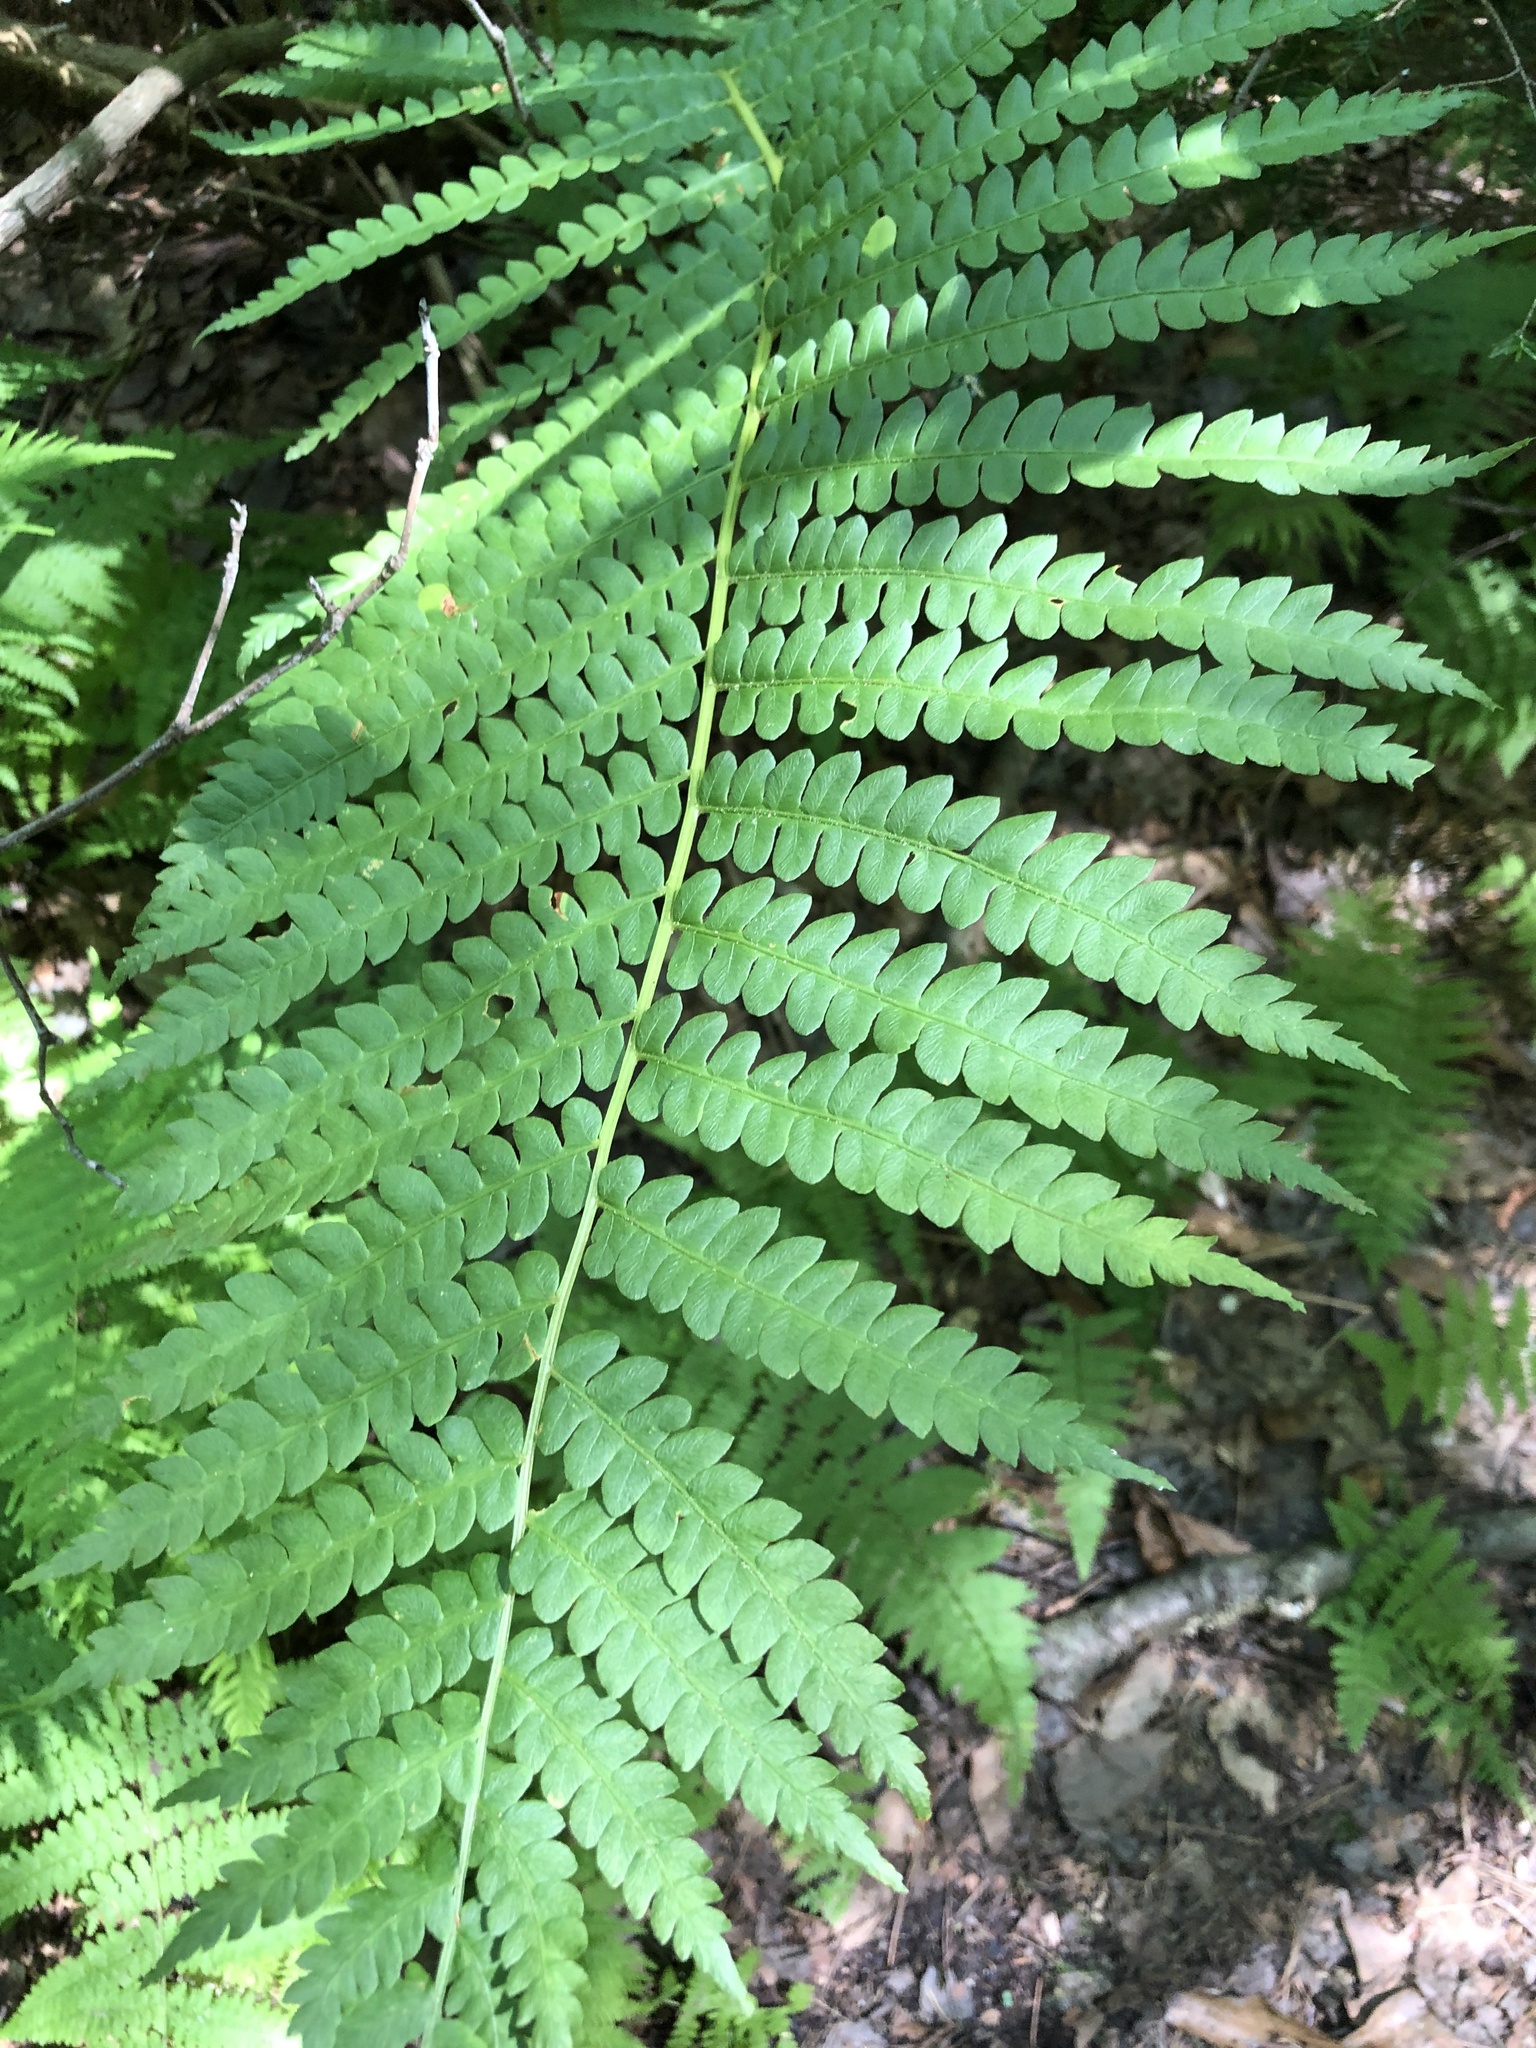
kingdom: Plantae
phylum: Tracheophyta
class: Polypodiopsida
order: Osmundales
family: Osmundaceae
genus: Osmundastrum
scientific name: Osmundastrum cinnamomeum
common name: Cinnamon fern
